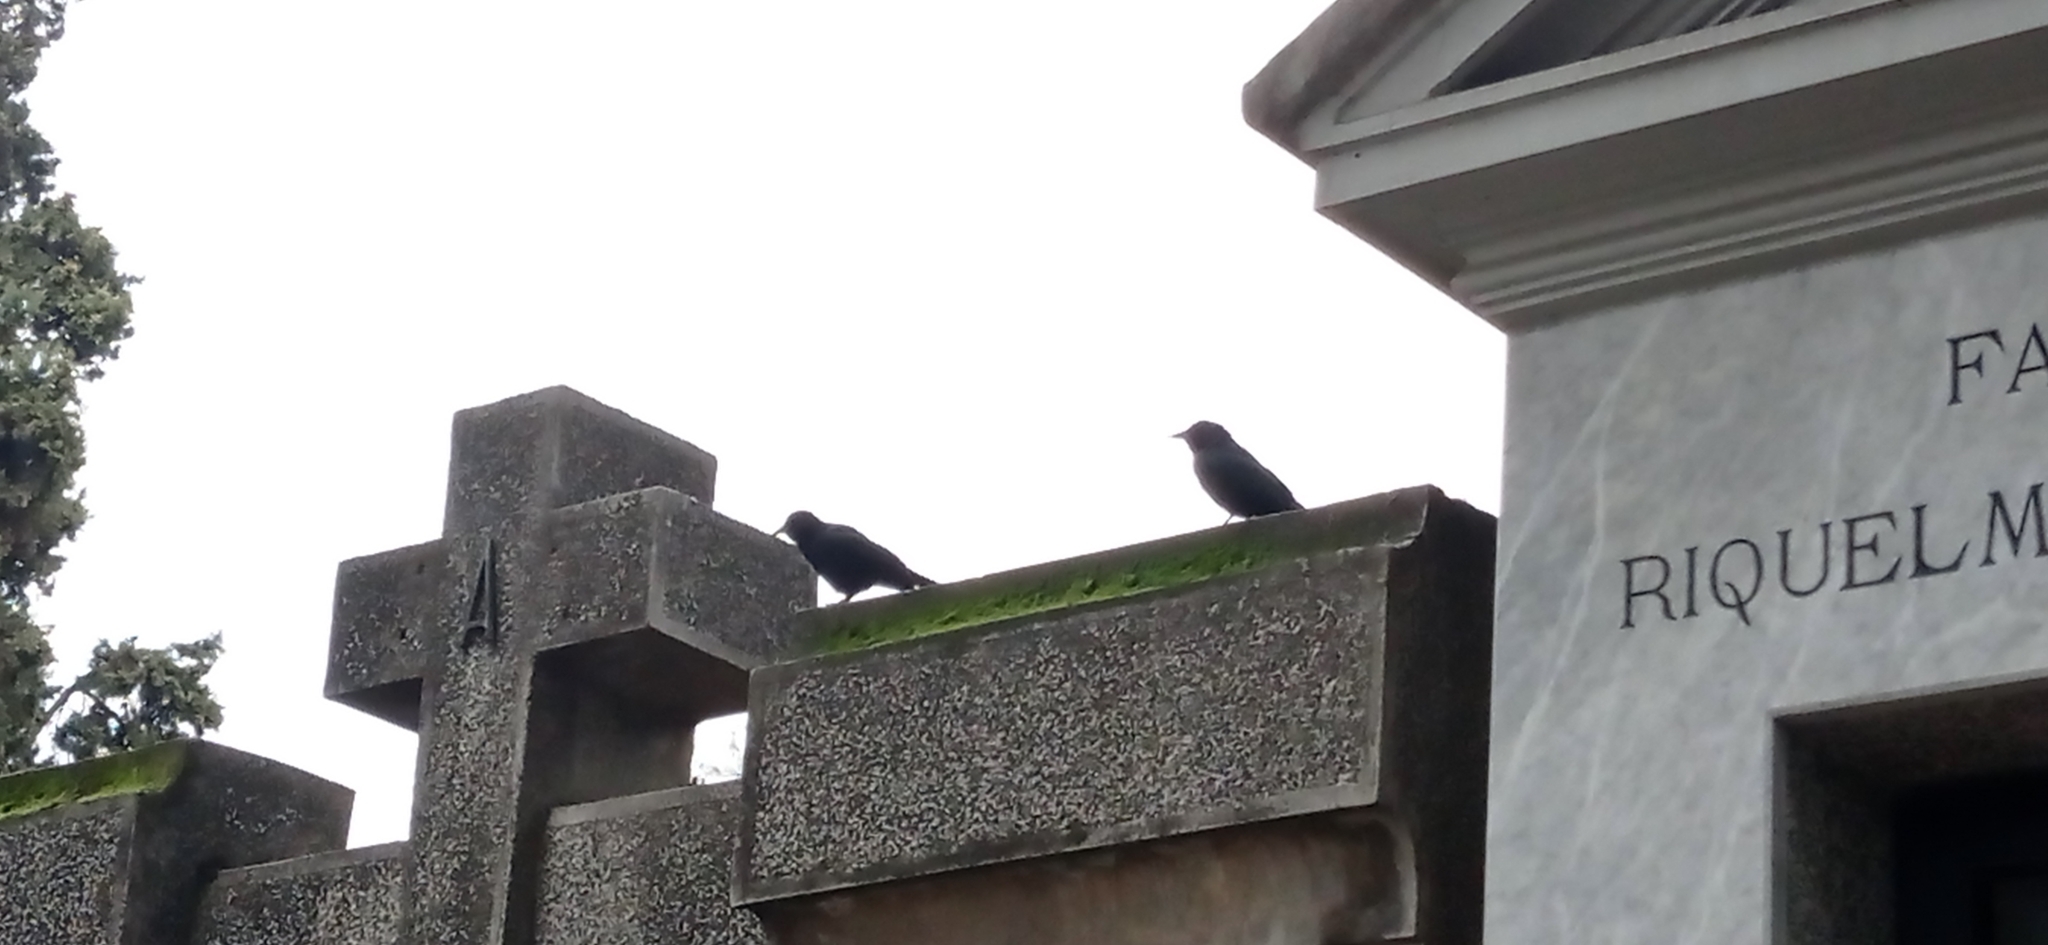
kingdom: Animalia
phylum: Chordata
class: Aves
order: Passeriformes
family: Icteridae
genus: Curaeus
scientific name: Curaeus curaeus
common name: Austral blackbird
